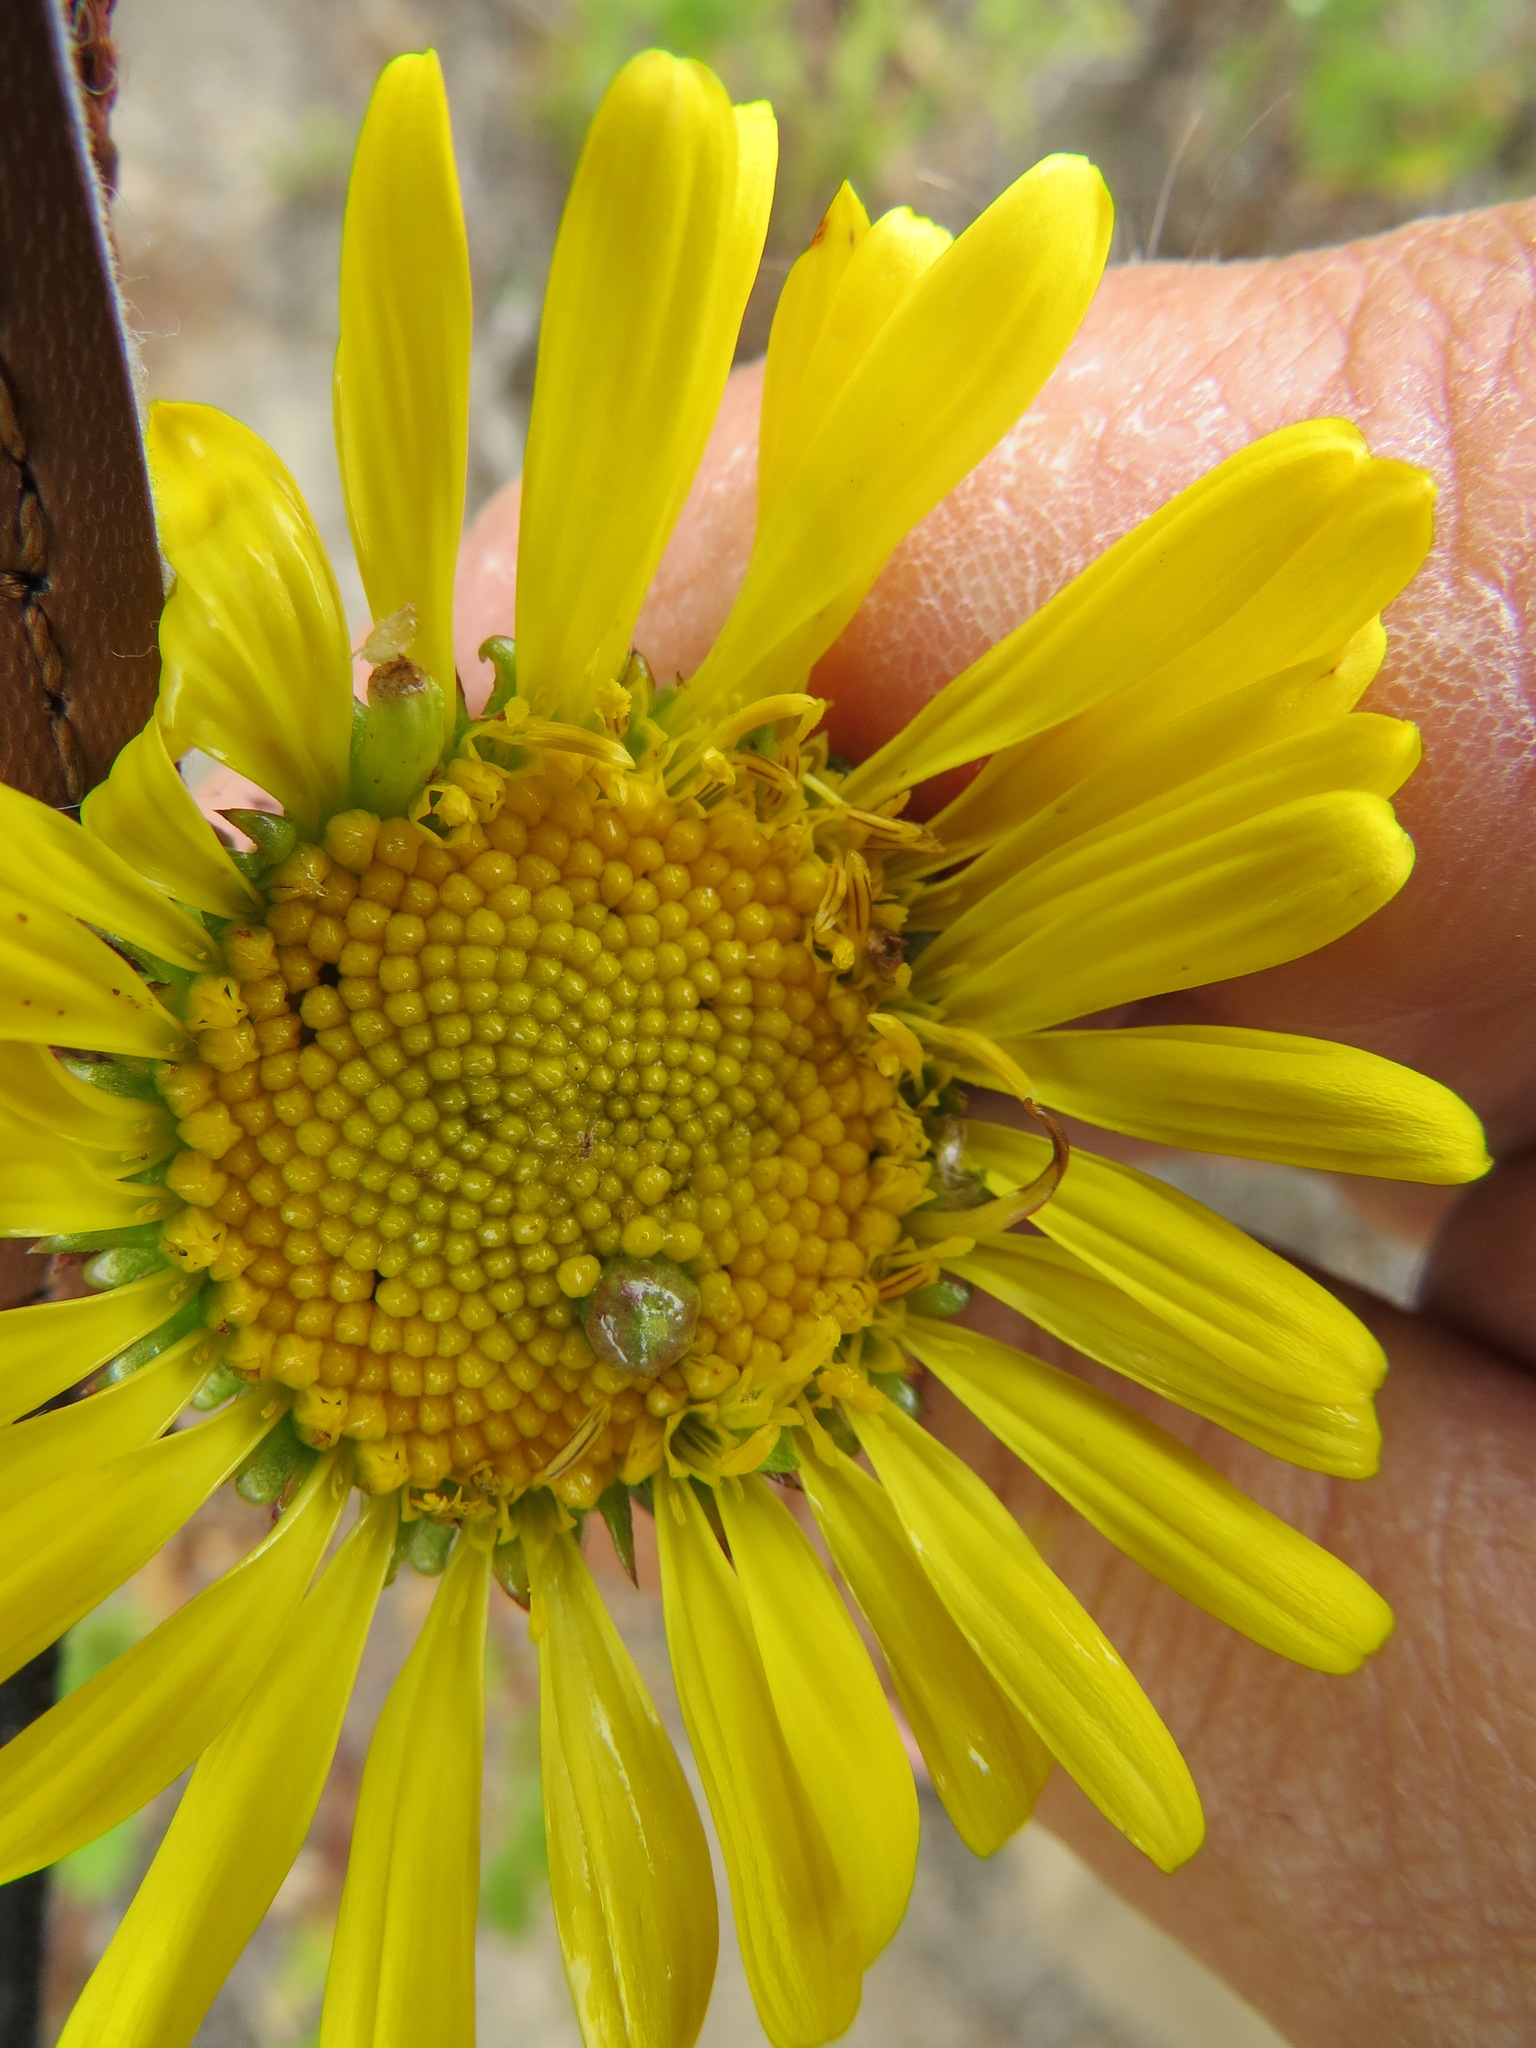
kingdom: Animalia
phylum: Arthropoda
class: Insecta
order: Diptera
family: Cecidomyiidae
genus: Rhopalomyia
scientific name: Rhopalomyia grindeliae
